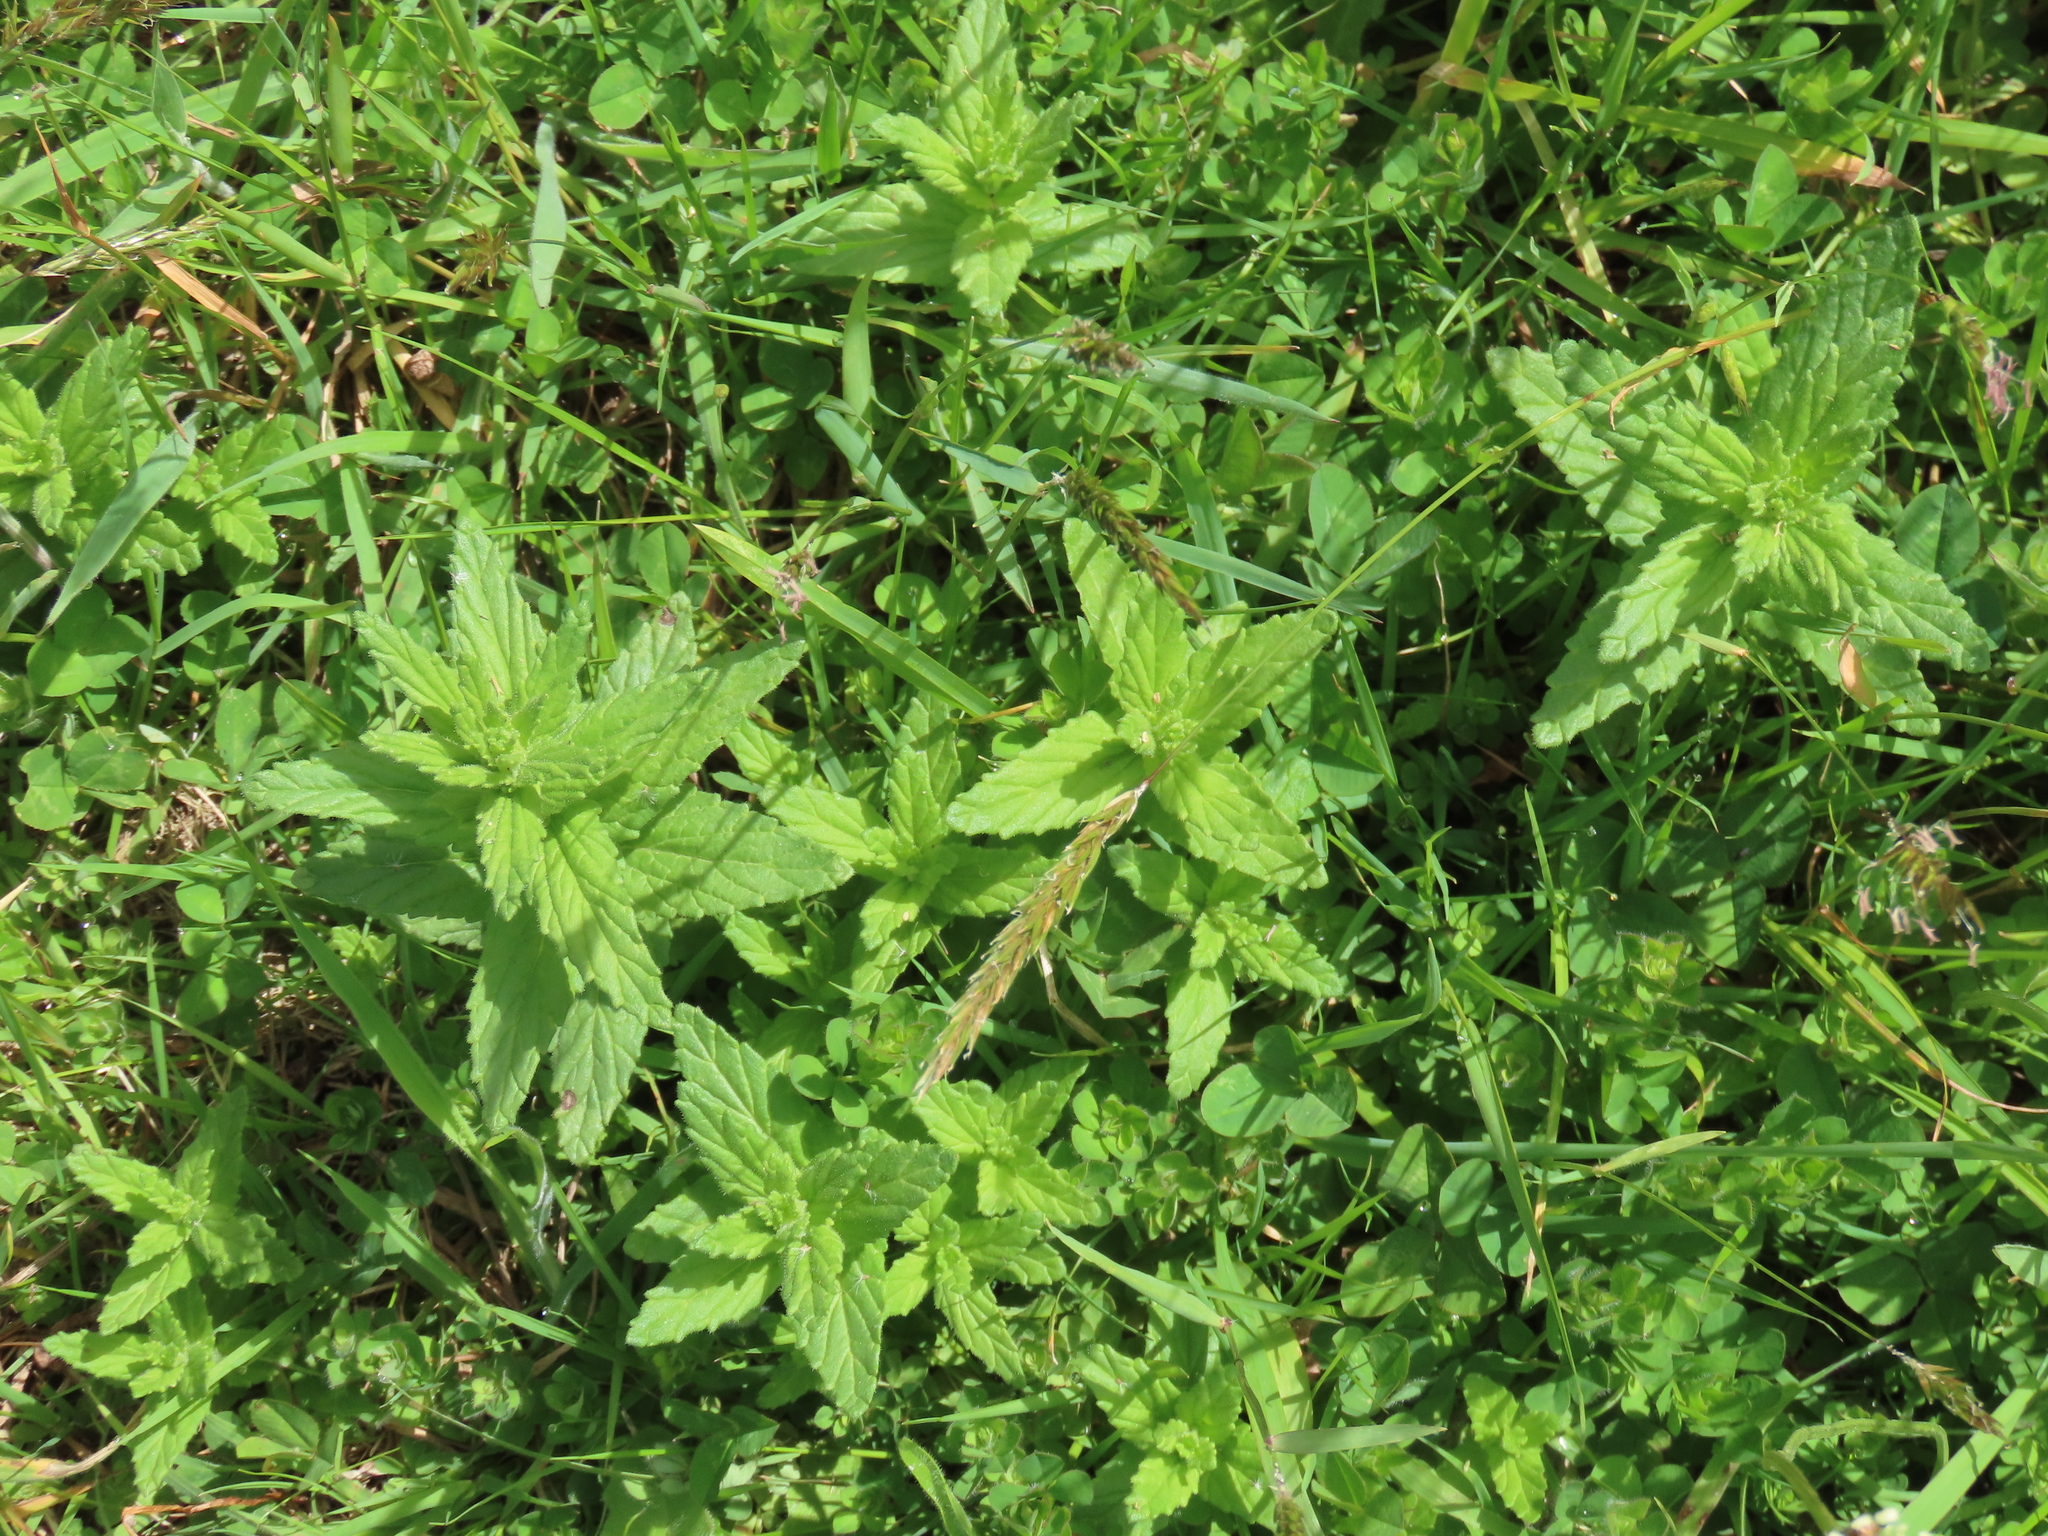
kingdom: Plantae
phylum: Tracheophyta
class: Magnoliopsida
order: Lamiales
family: Orobanchaceae
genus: Bellardia
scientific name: Bellardia viscosa
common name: Sticky parentucellia
